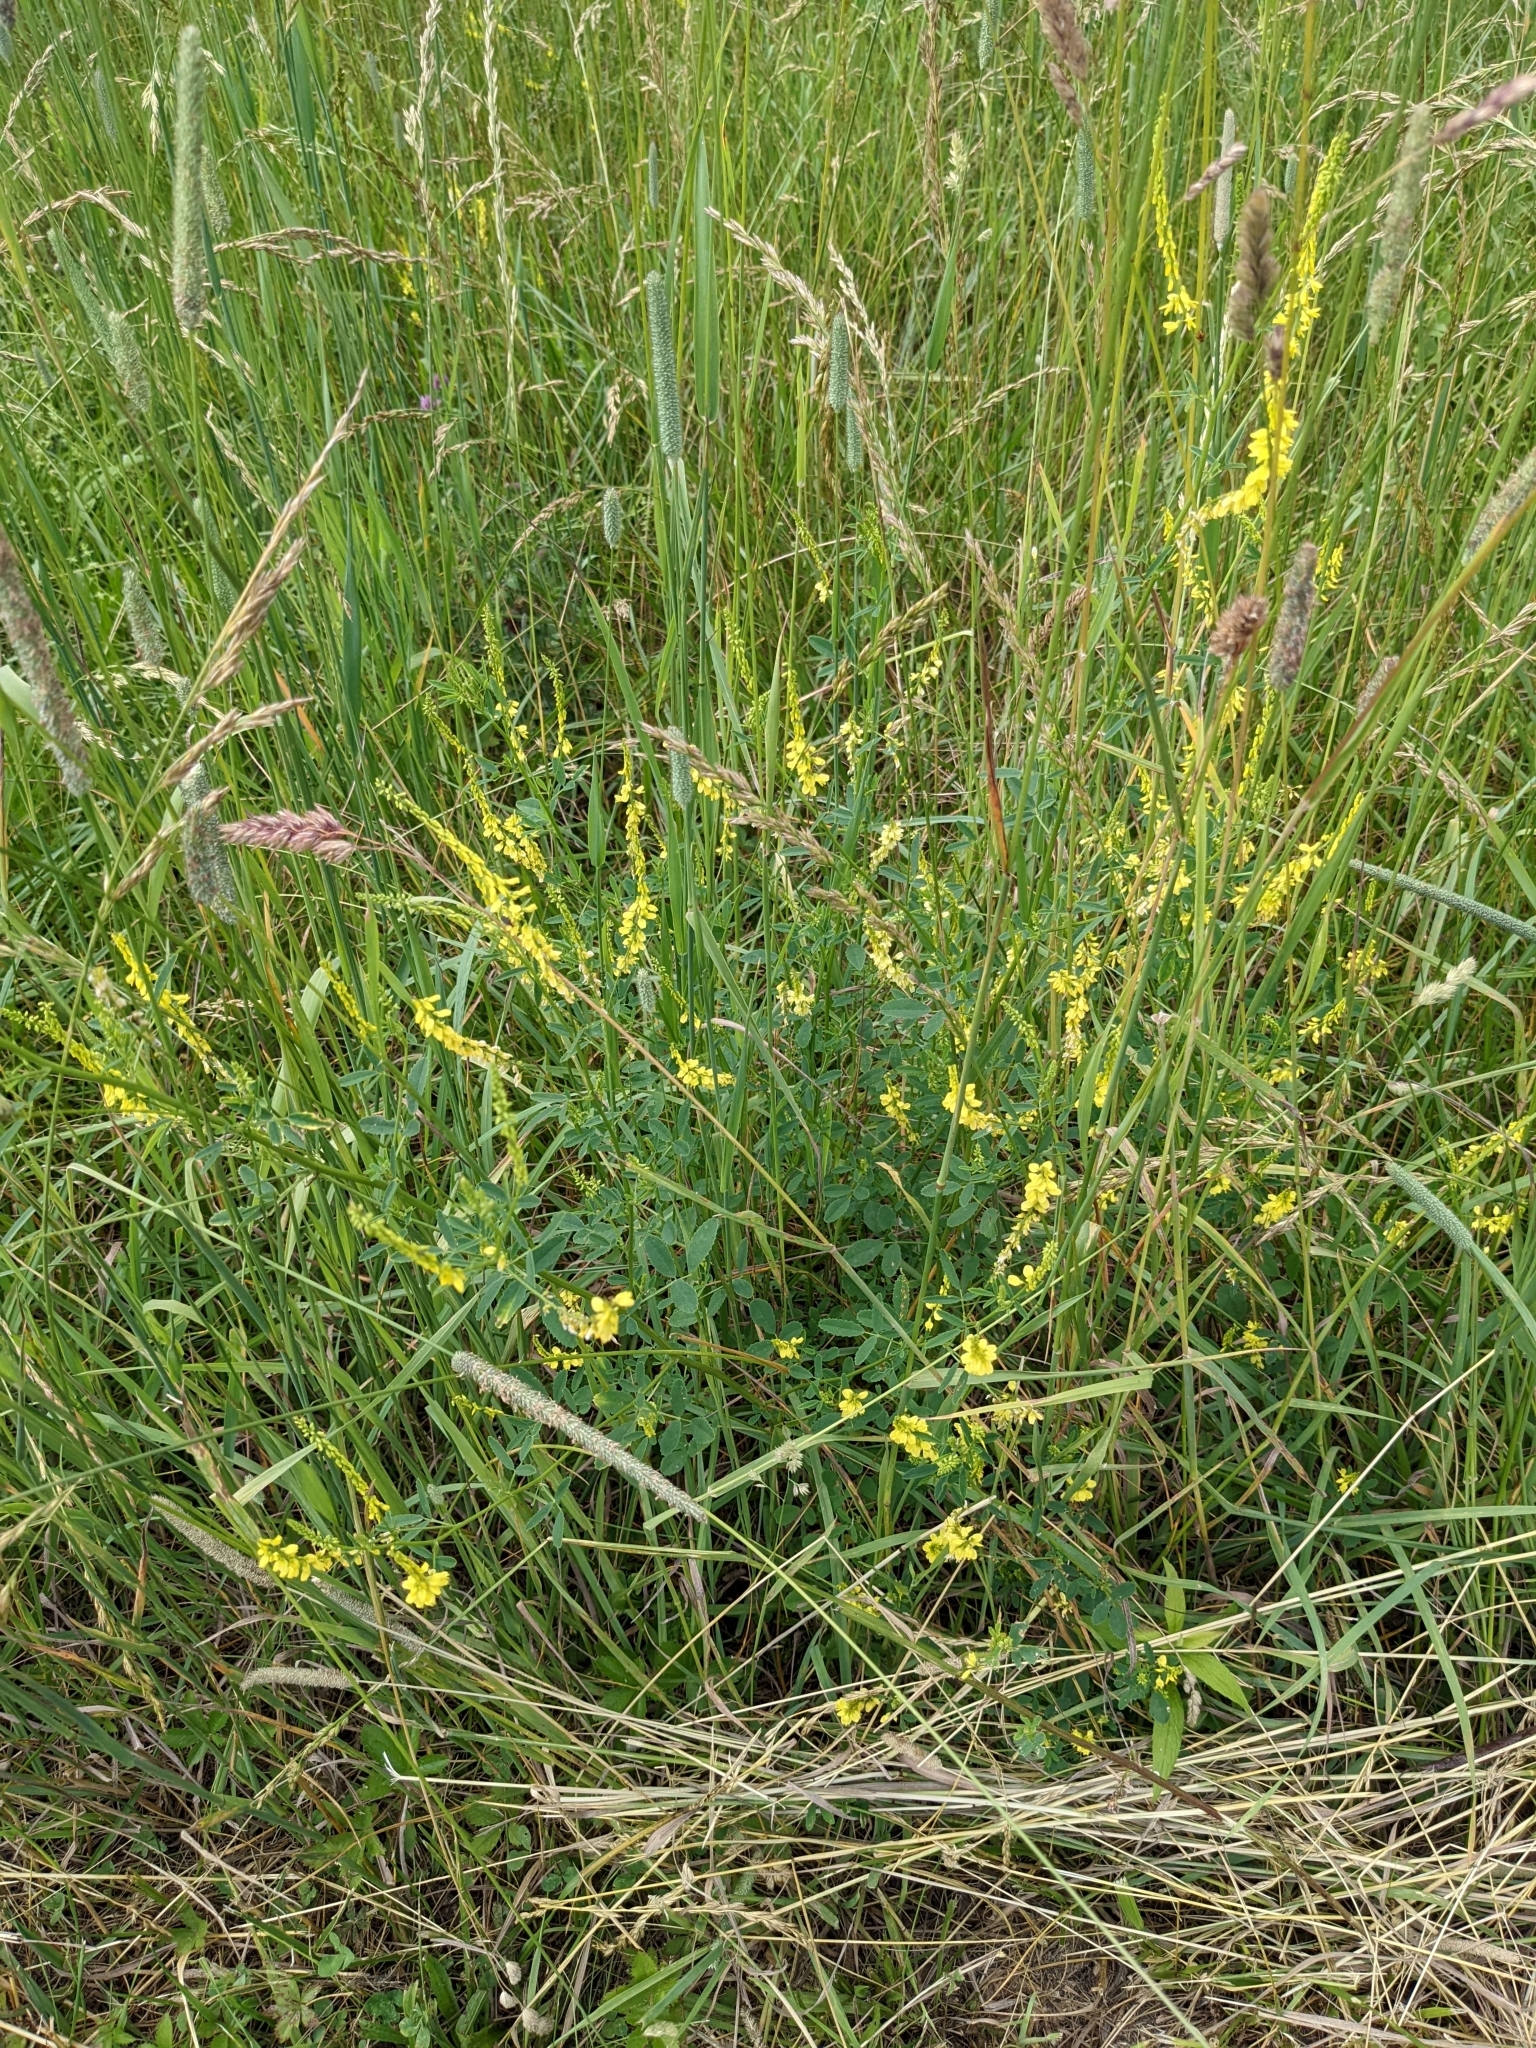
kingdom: Plantae
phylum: Tracheophyta
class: Magnoliopsida
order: Fabales
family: Fabaceae
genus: Melilotus
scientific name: Melilotus officinalis
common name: Sweetclover
